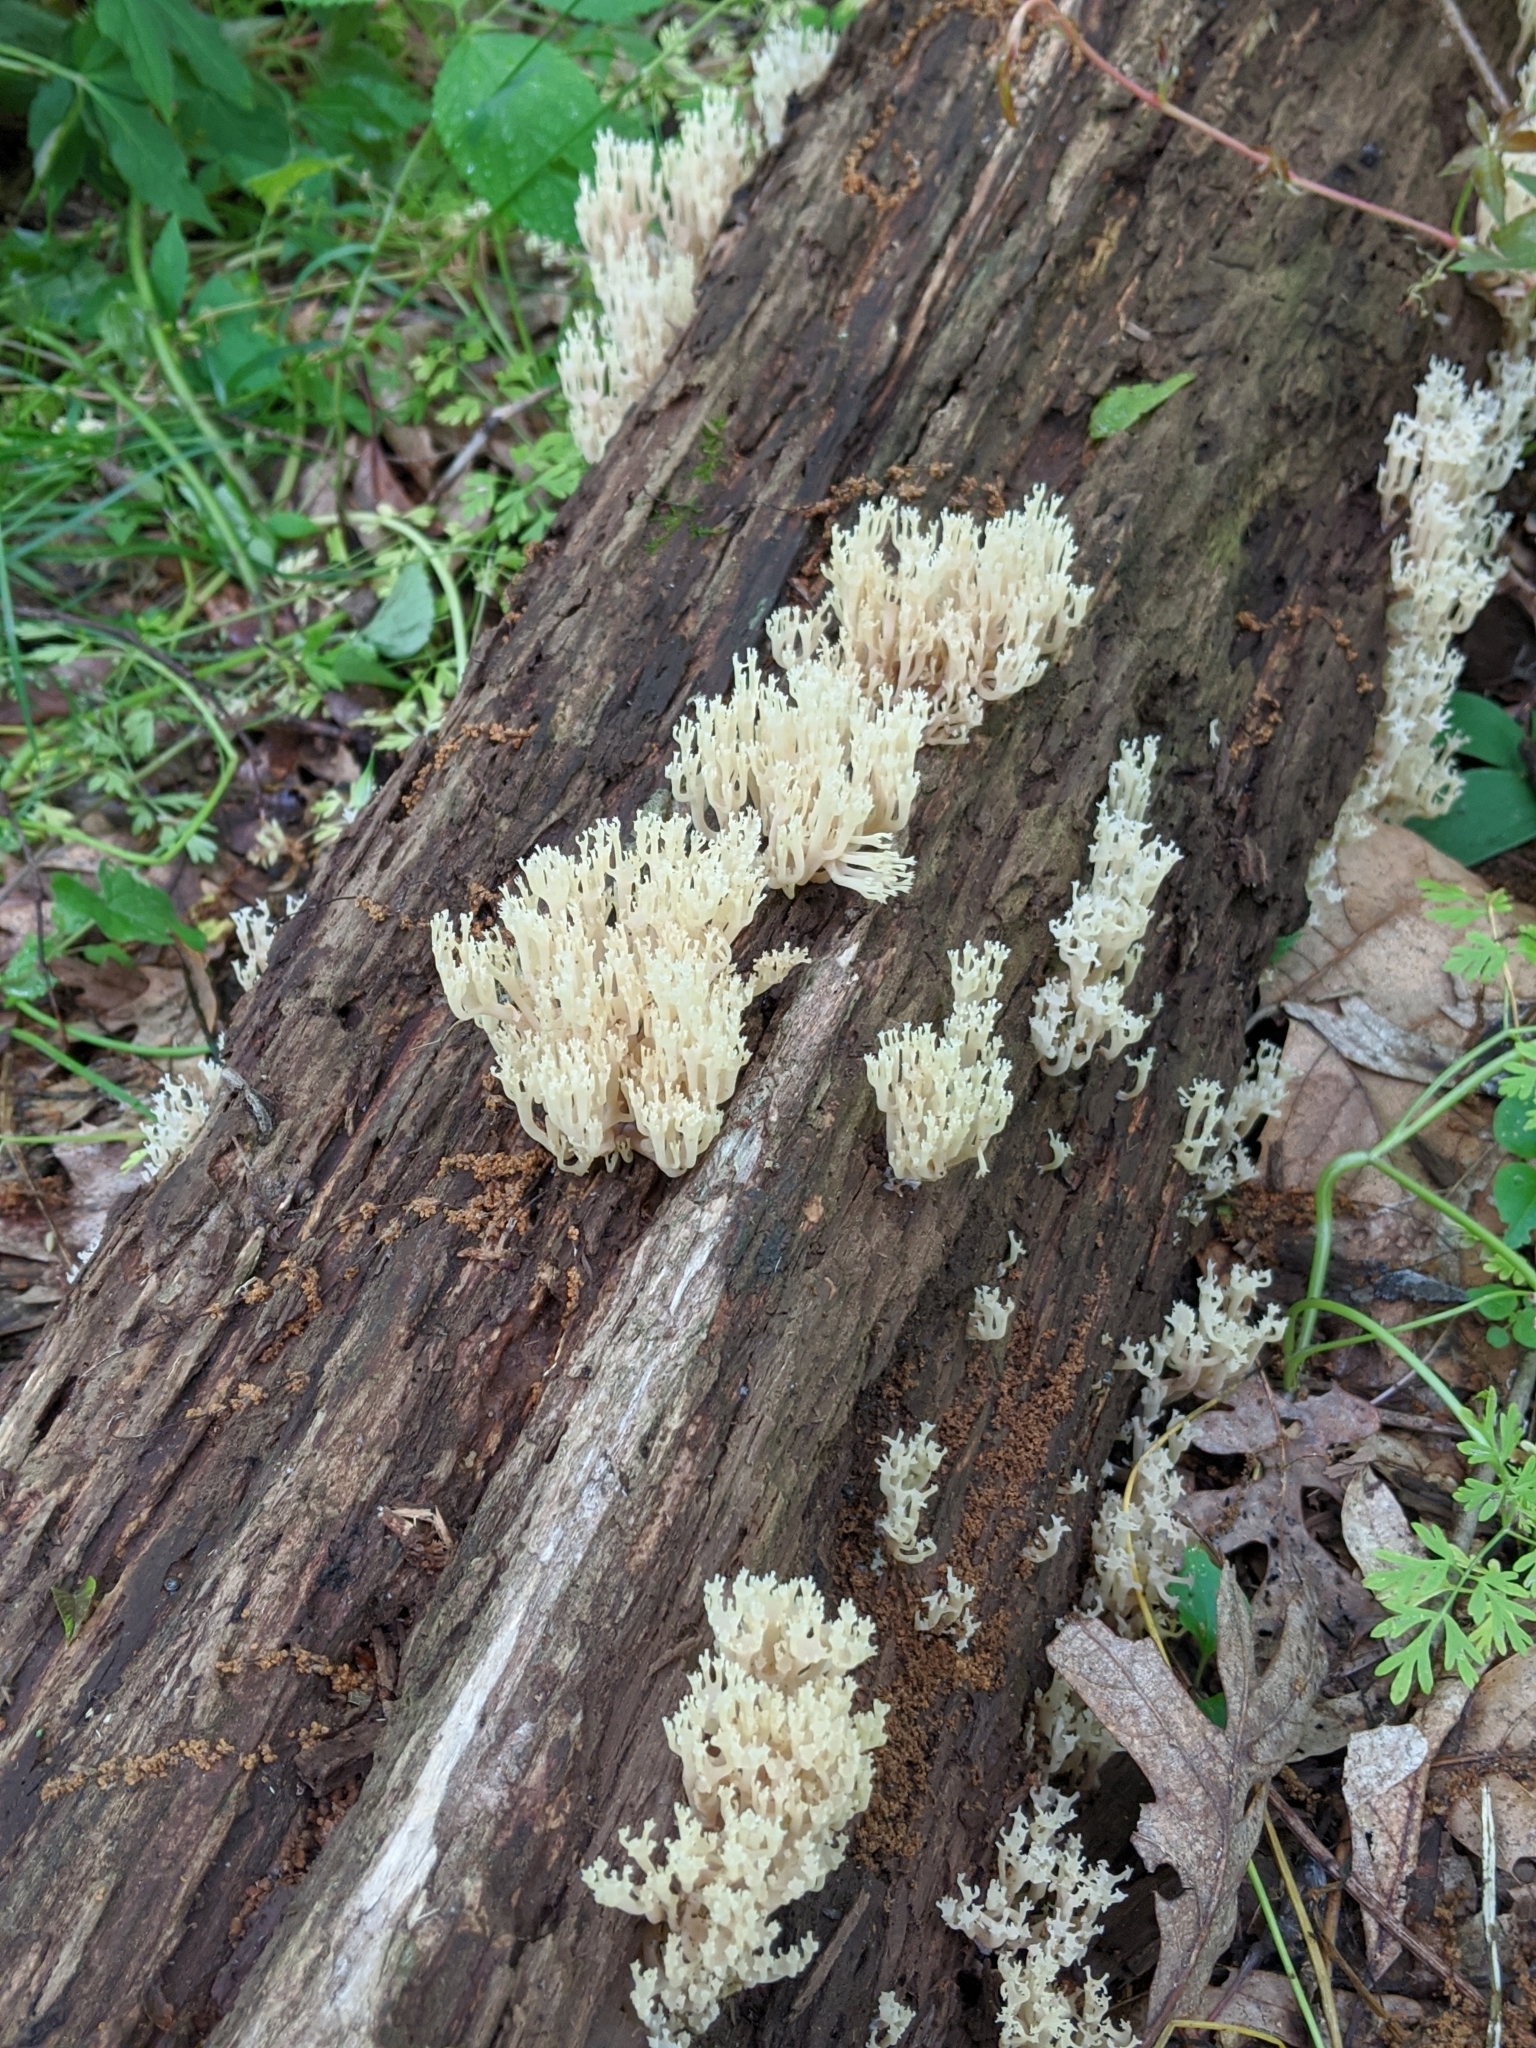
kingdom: Fungi
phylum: Basidiomycota
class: Agaricomycetes
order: Russulales
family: Auriscalpiaceae
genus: Artomyces
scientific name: Artomyces pyxidatus
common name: Crown-tipped coral fungus
